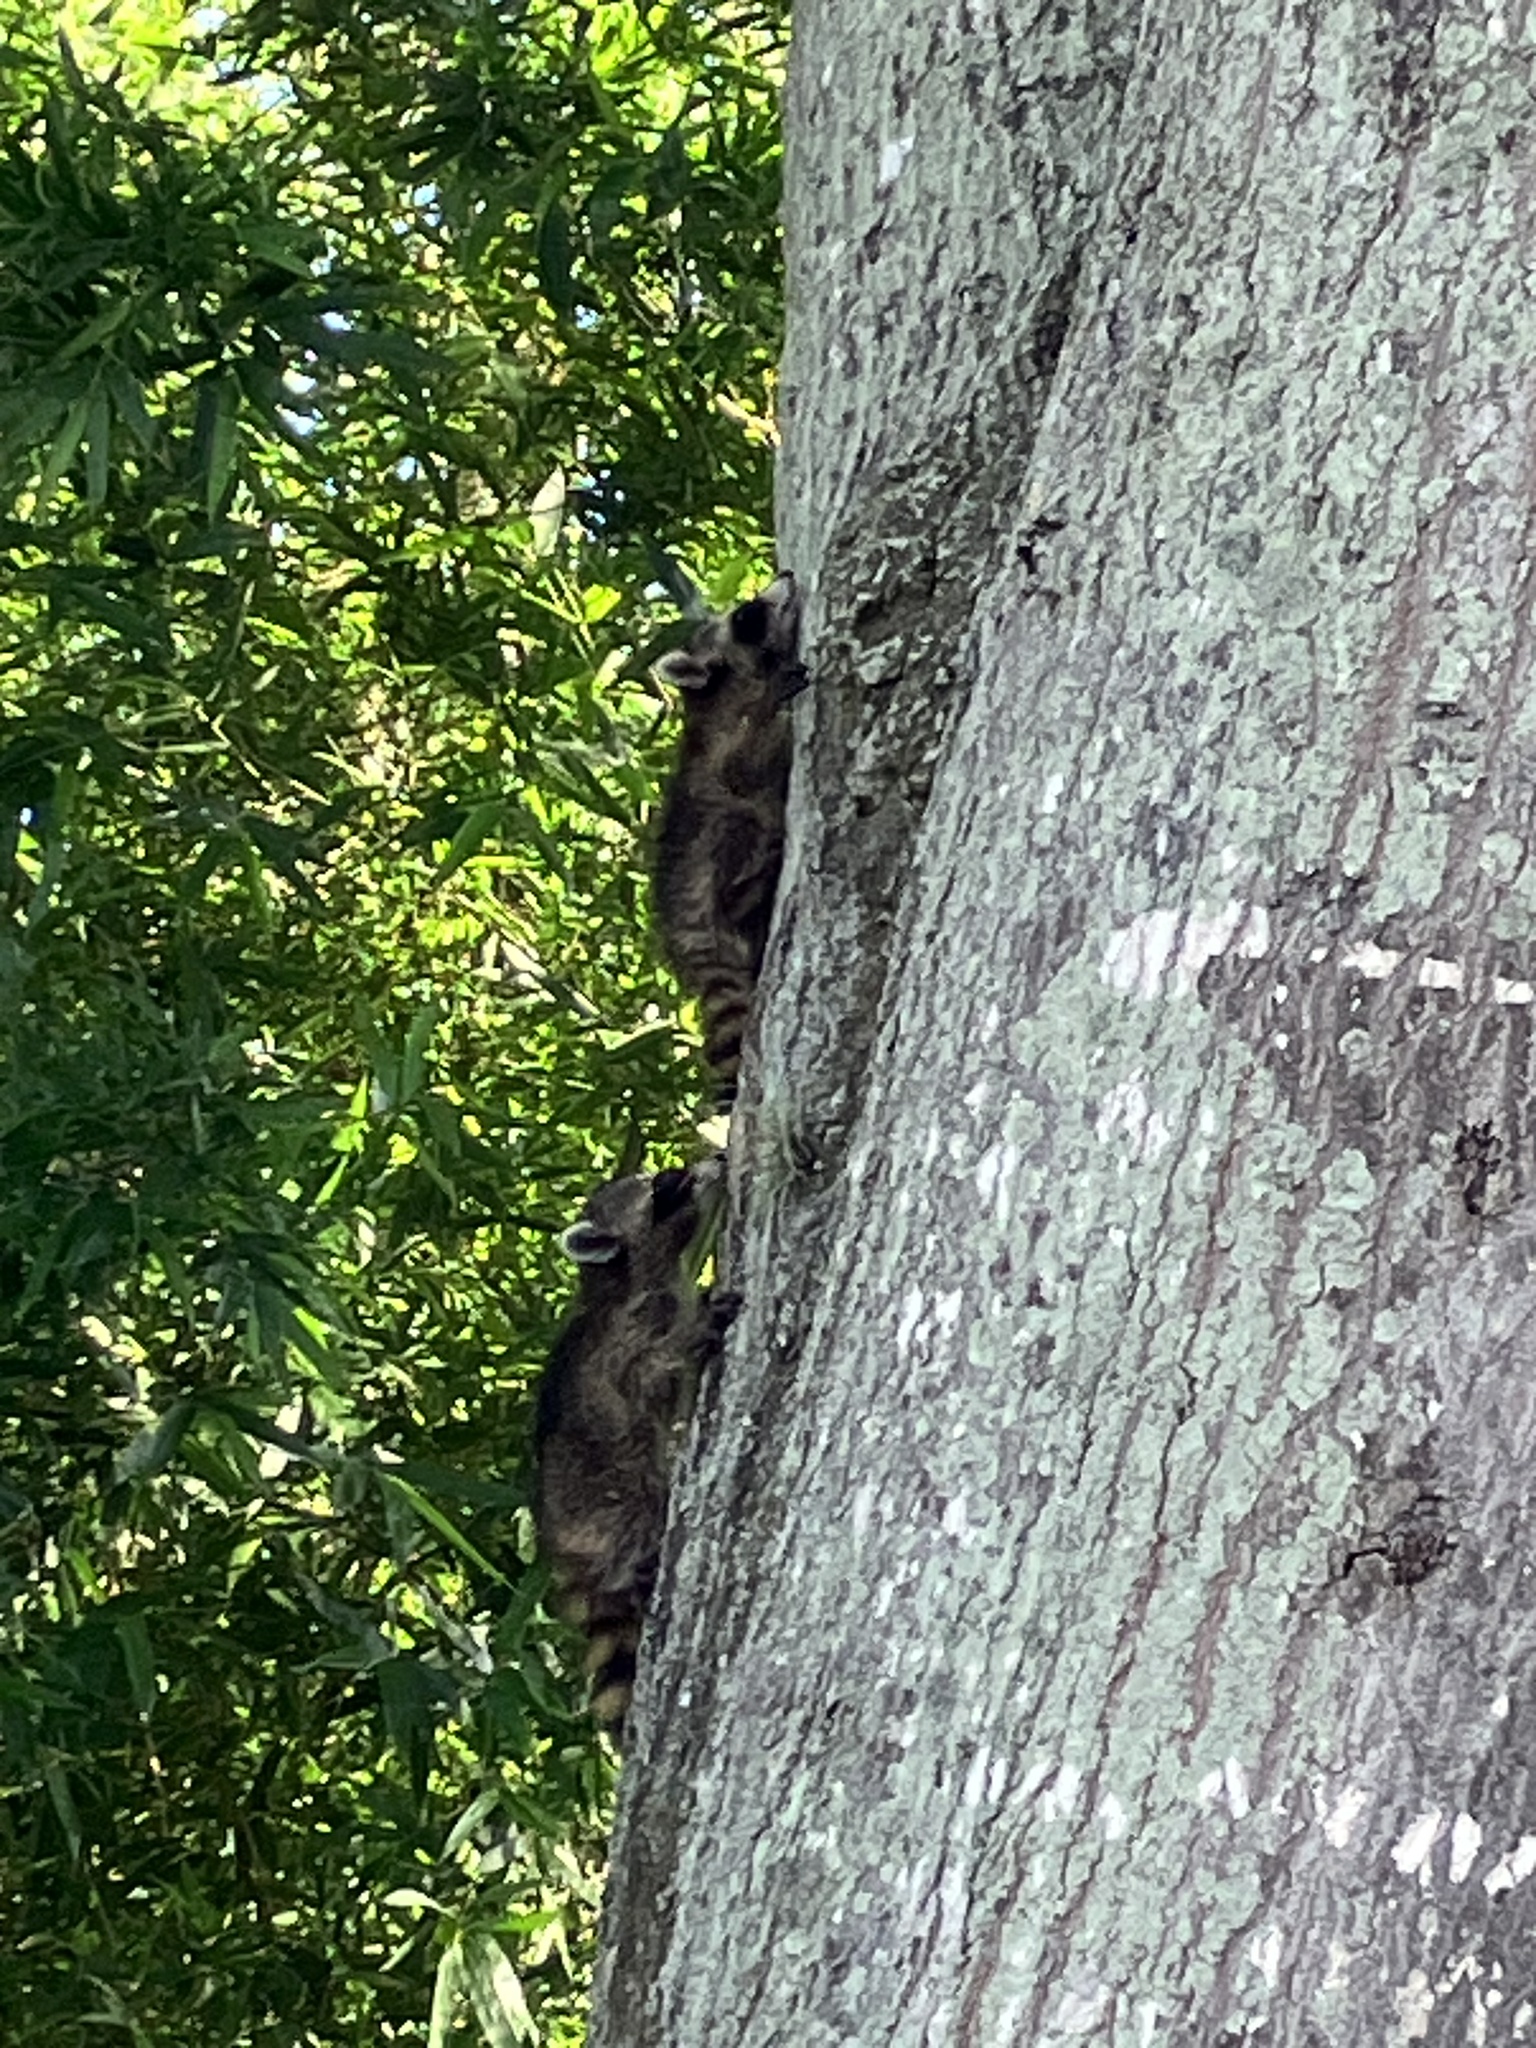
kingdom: Animalia
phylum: Chordata
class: Mammalia
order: Carnivora
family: Procyonidae
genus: Procyon
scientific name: Procyon lotor
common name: Raccoon
